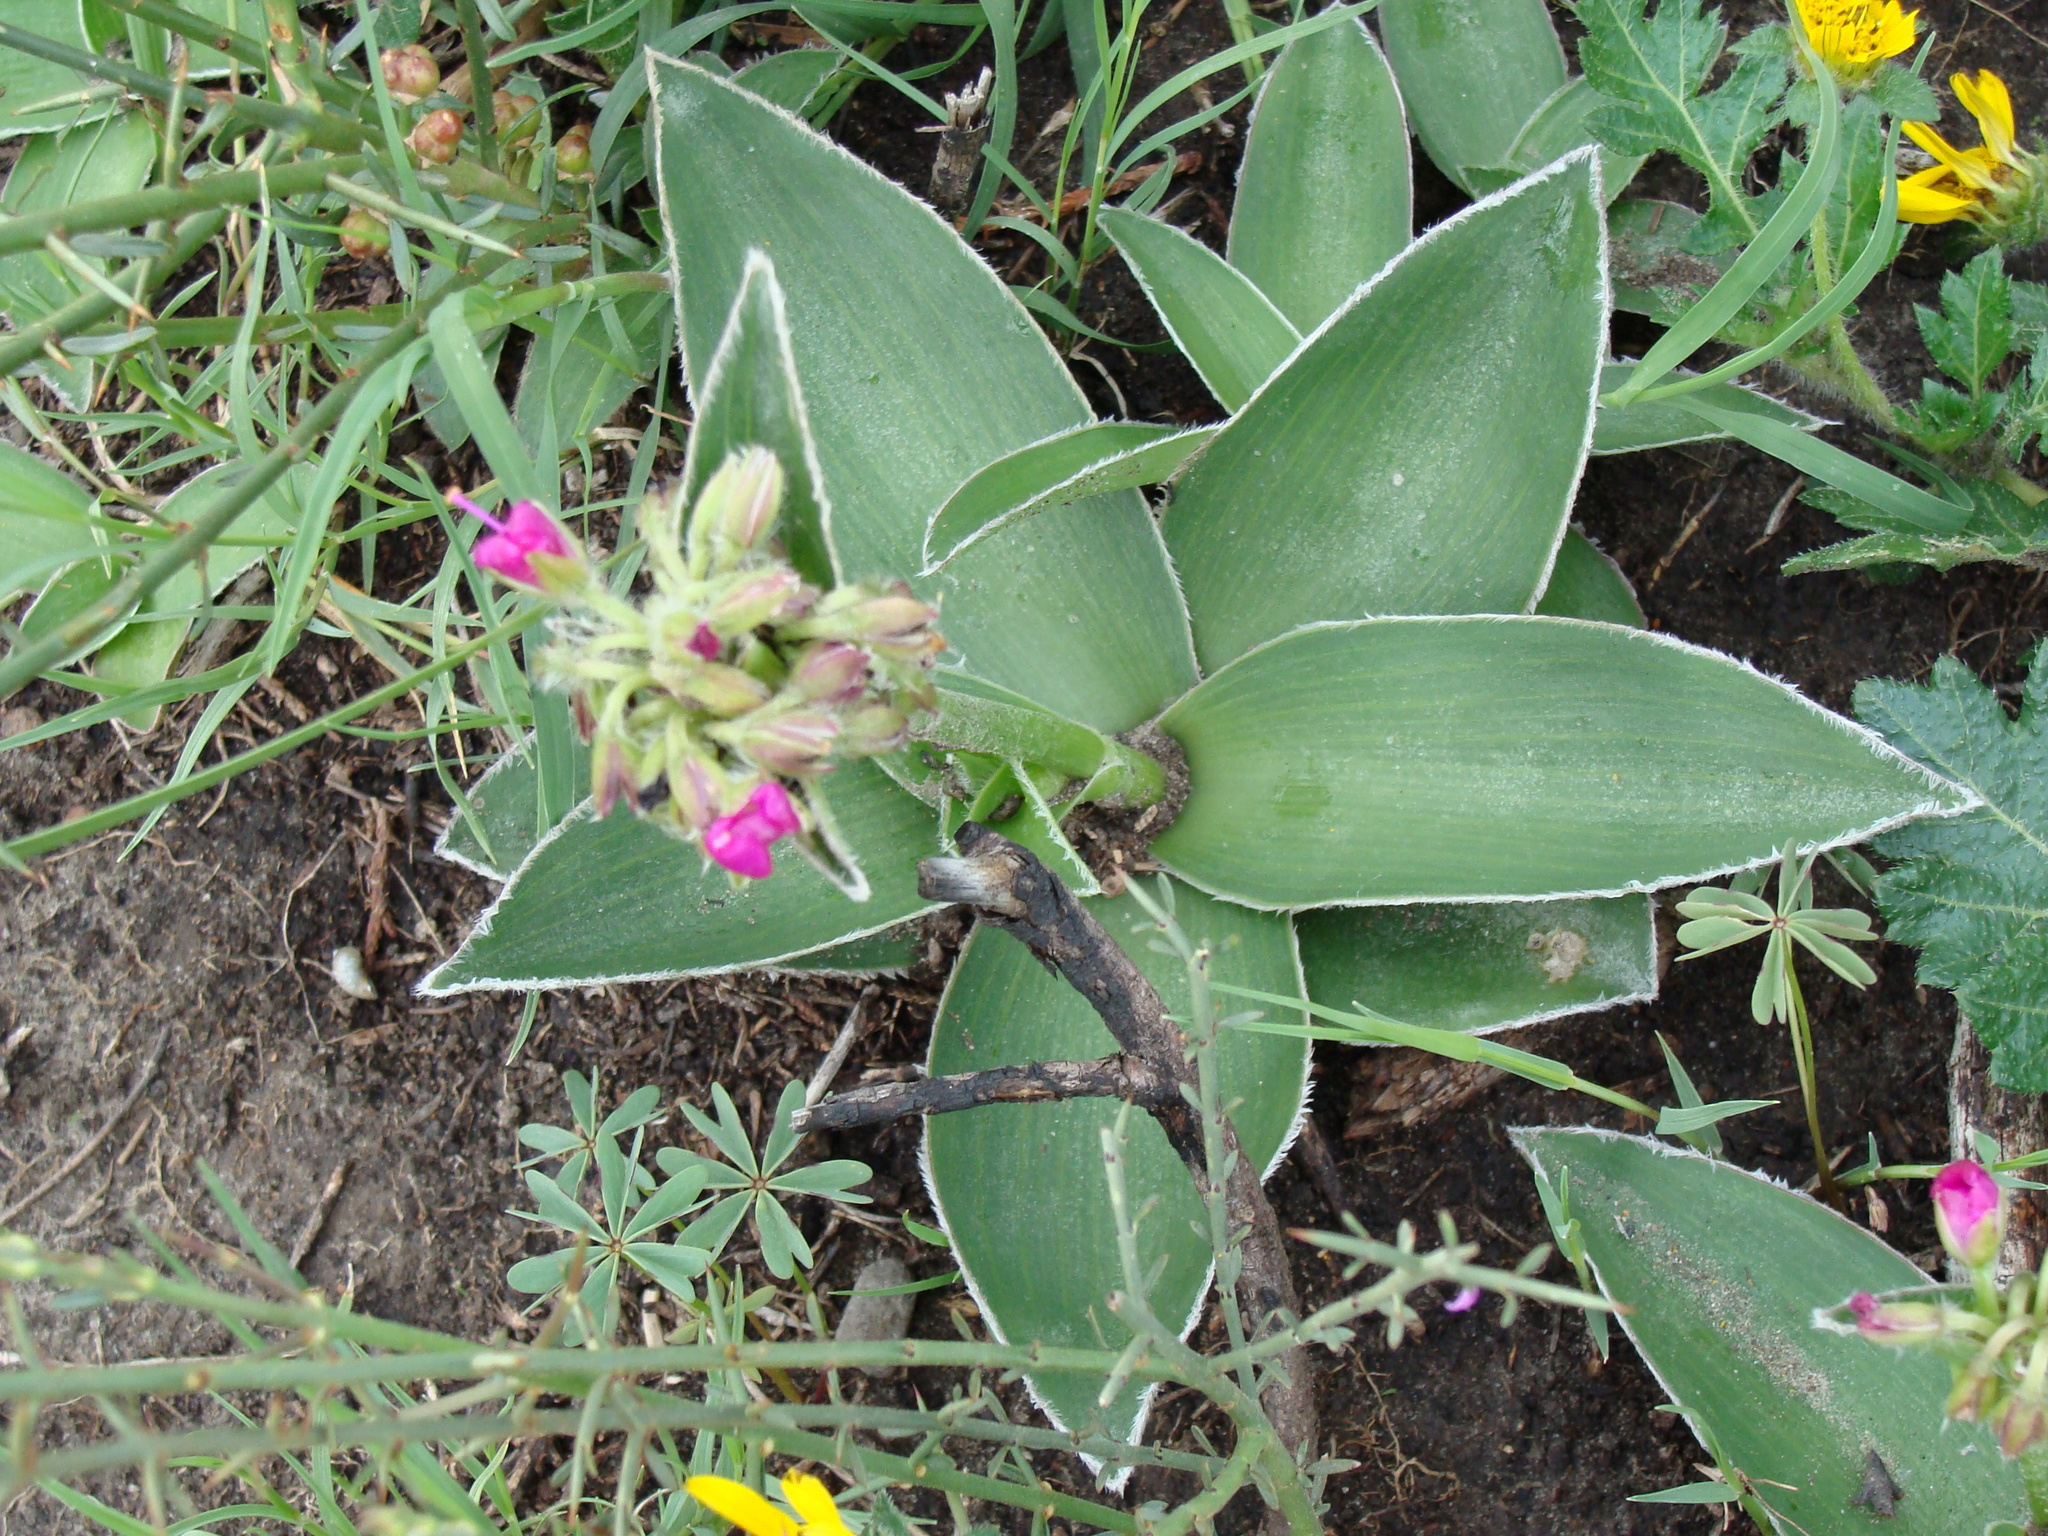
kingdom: Plantae
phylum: Tracheophyta
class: Liliopsida
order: Commelinales
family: Commelinaceae
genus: Tradescantia
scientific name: Tradescantia crassifolia
